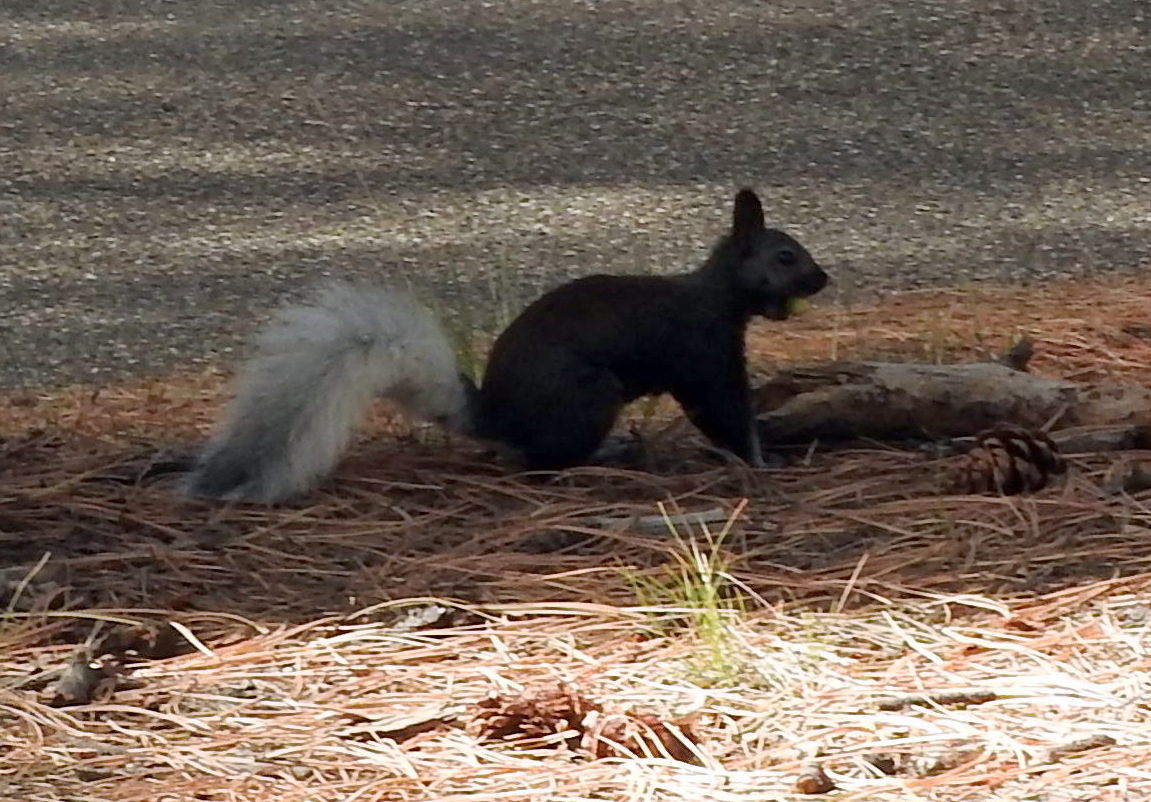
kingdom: Animalia
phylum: Chordata
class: Mammalia
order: Rodentia
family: Sciuridae
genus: Sciurus
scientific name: Sciurus aberti
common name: Abert's squirrel
